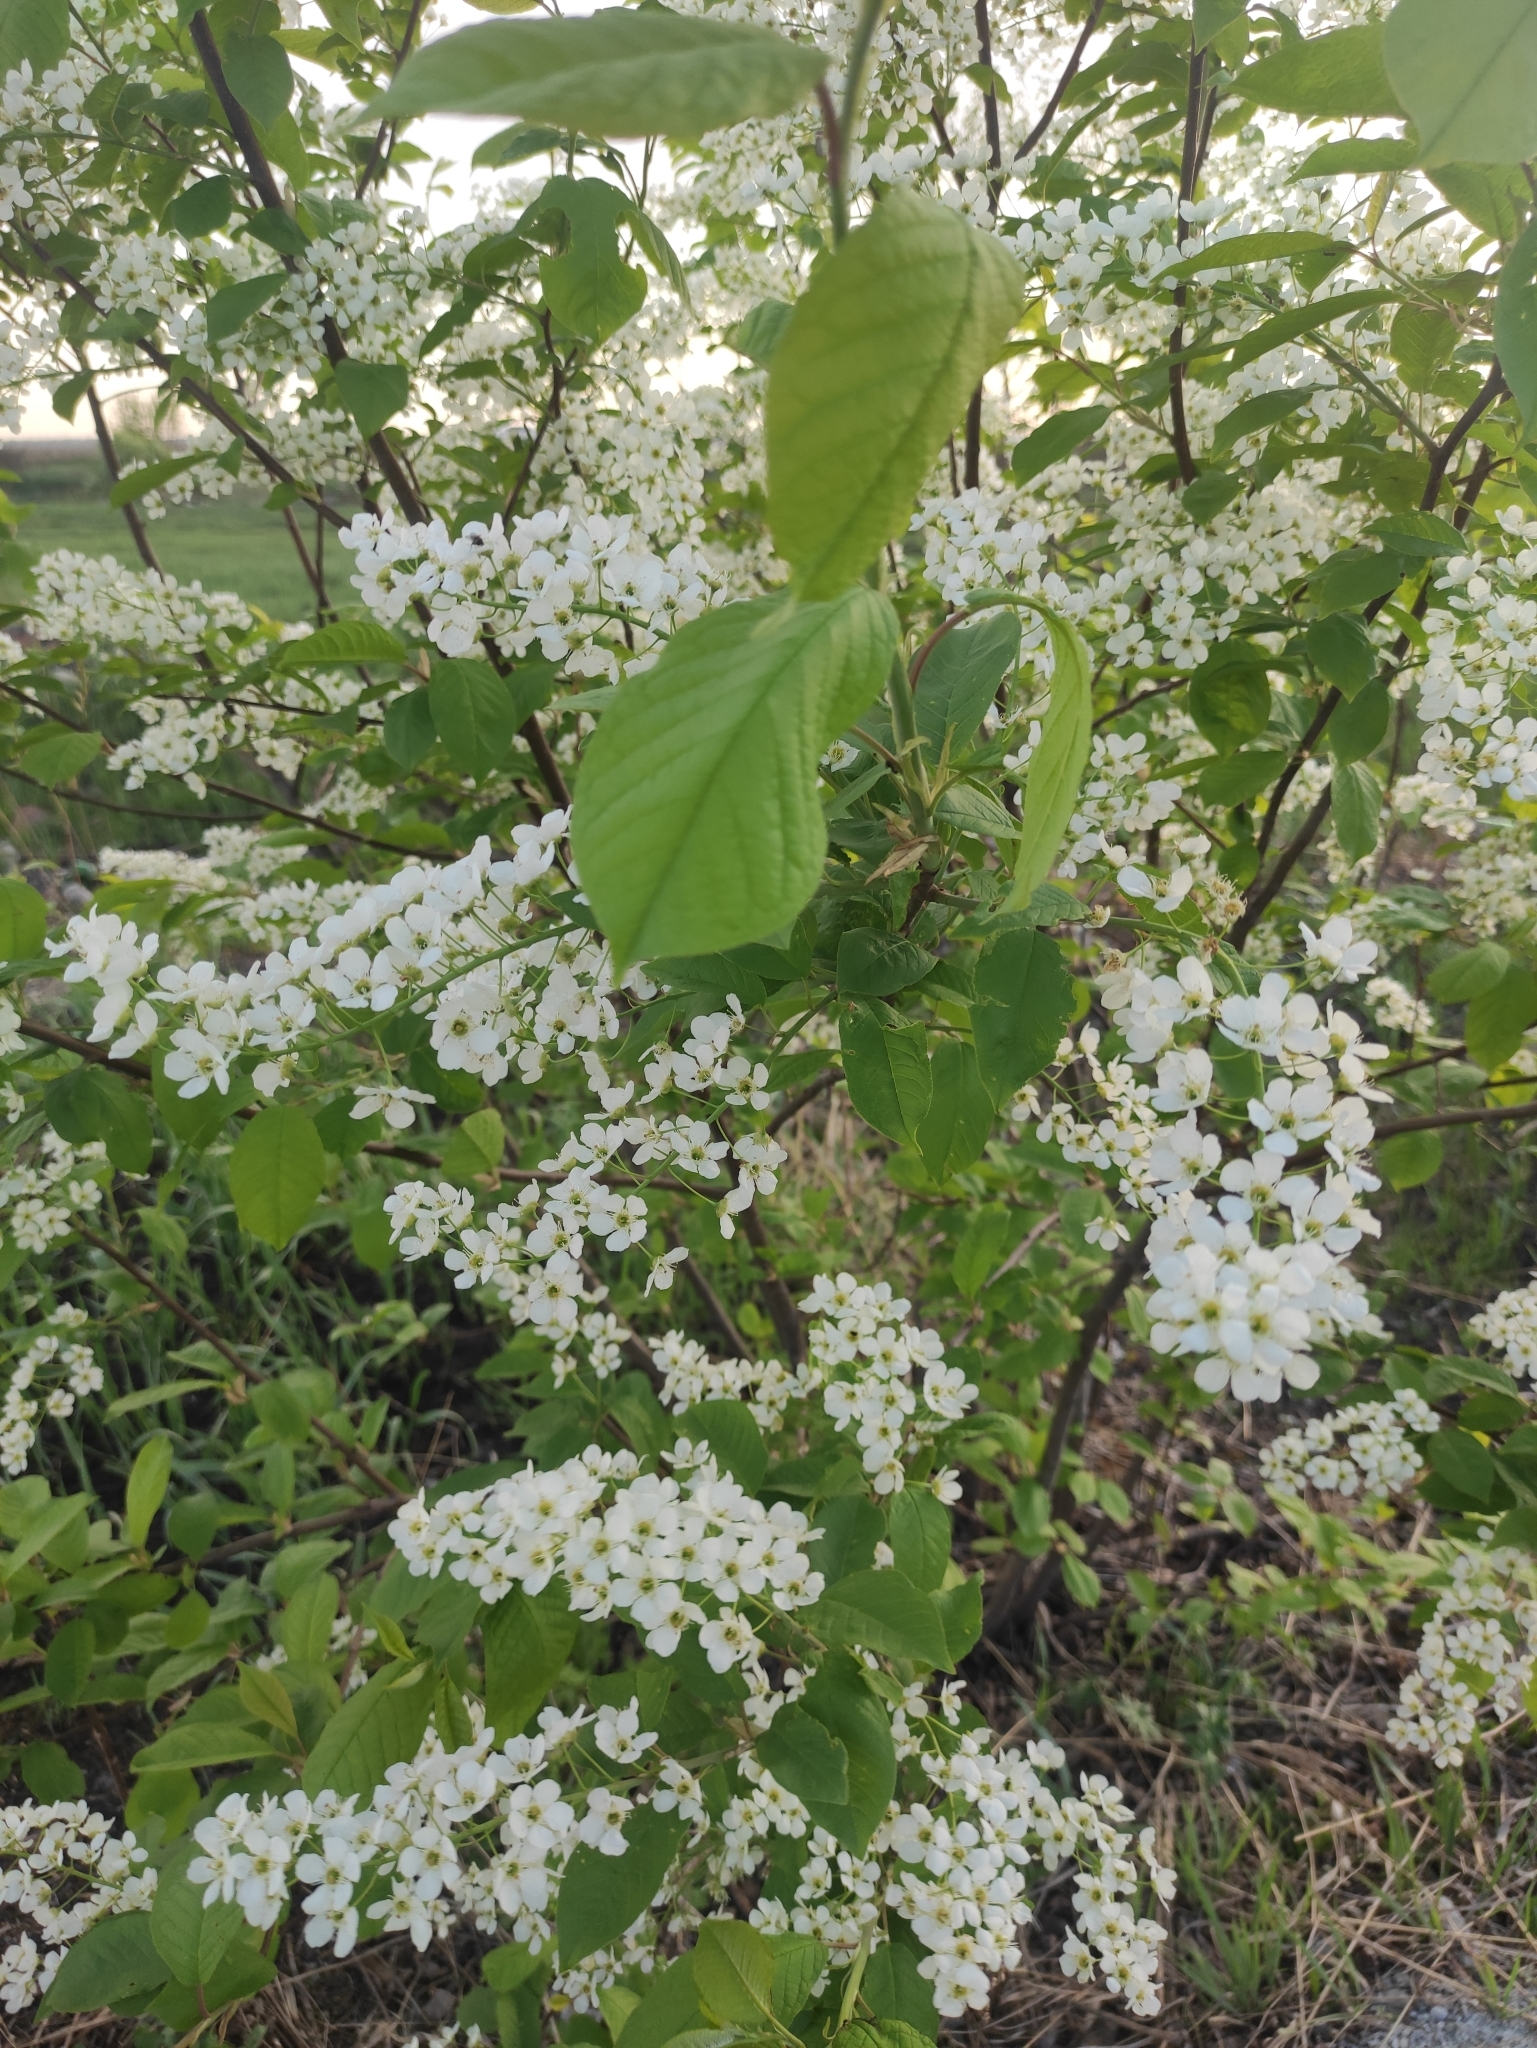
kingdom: Plantae
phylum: Tracheophyta
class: Magnoliopsida
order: Rosales
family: Rosaceae
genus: Prunus
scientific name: Prunus padus
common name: Bird cherry
